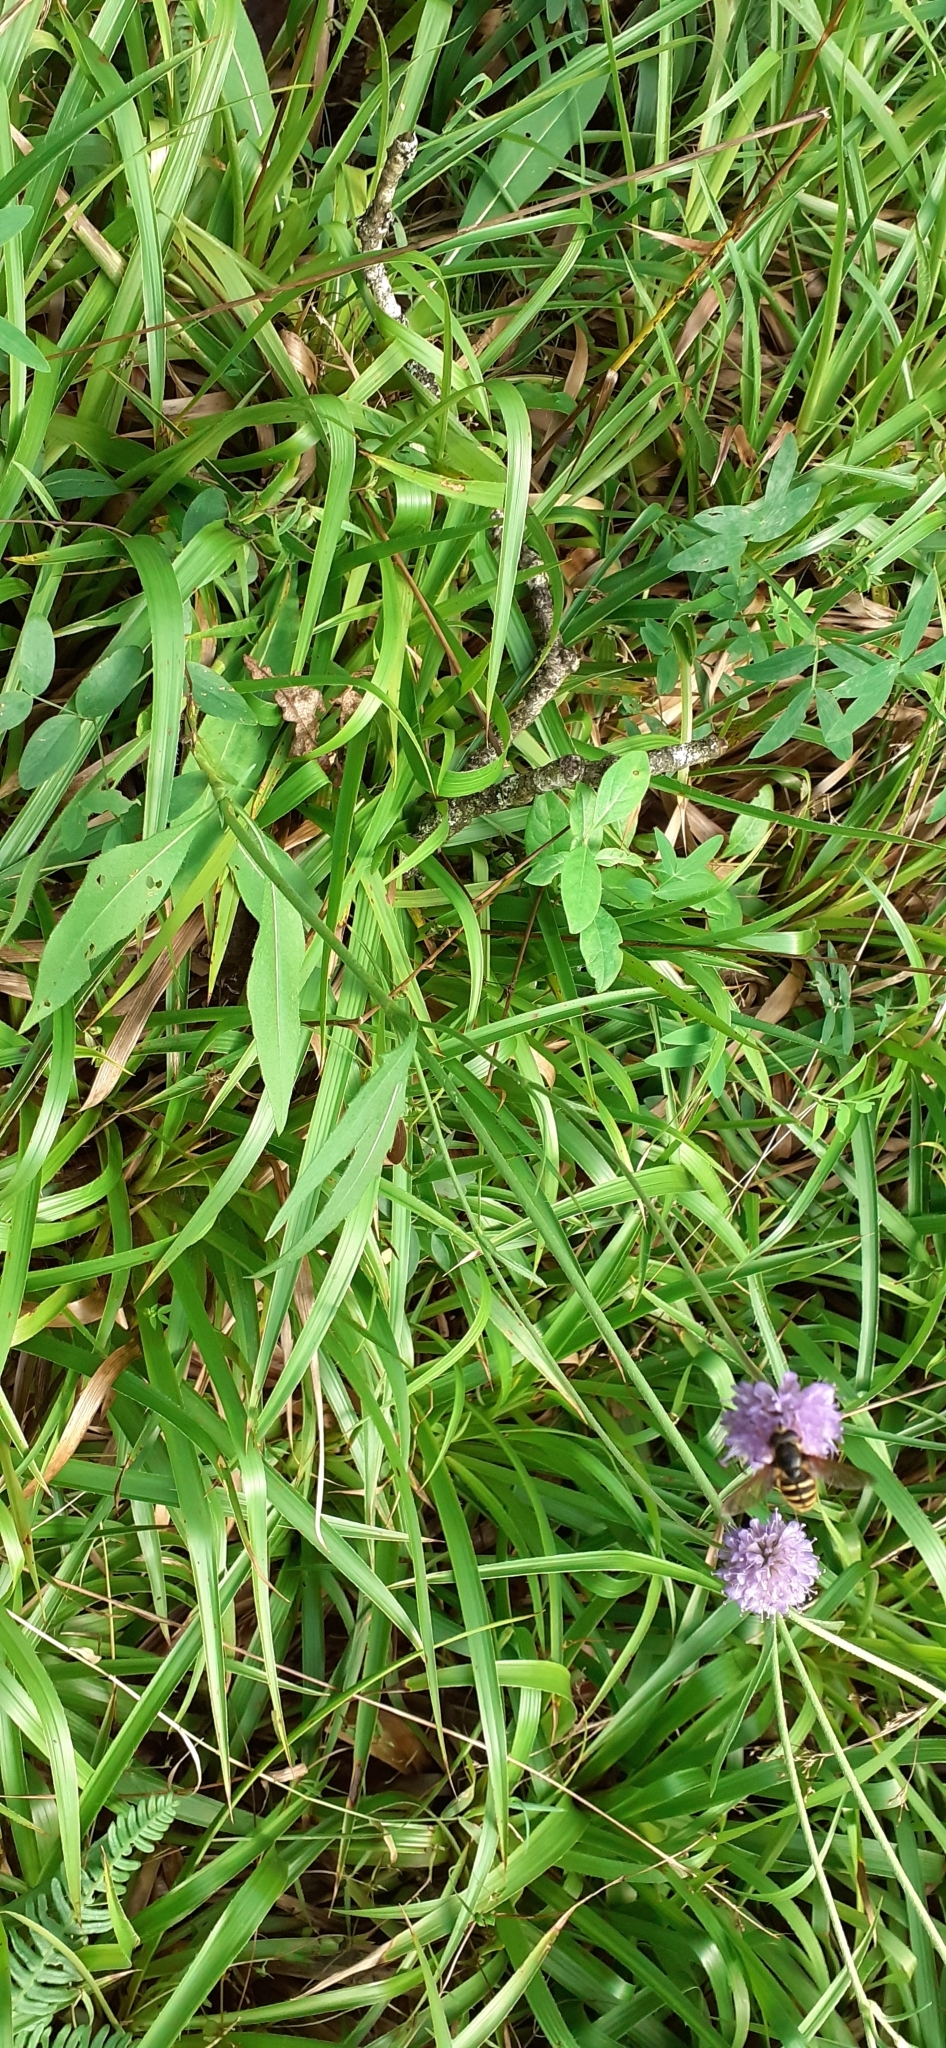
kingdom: Plantae
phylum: Tracheophyta
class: Magnoliopsida
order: Dipsacales
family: Caprifoliaceae
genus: Succisa
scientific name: Succisa pratensis
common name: Devil's-bit
